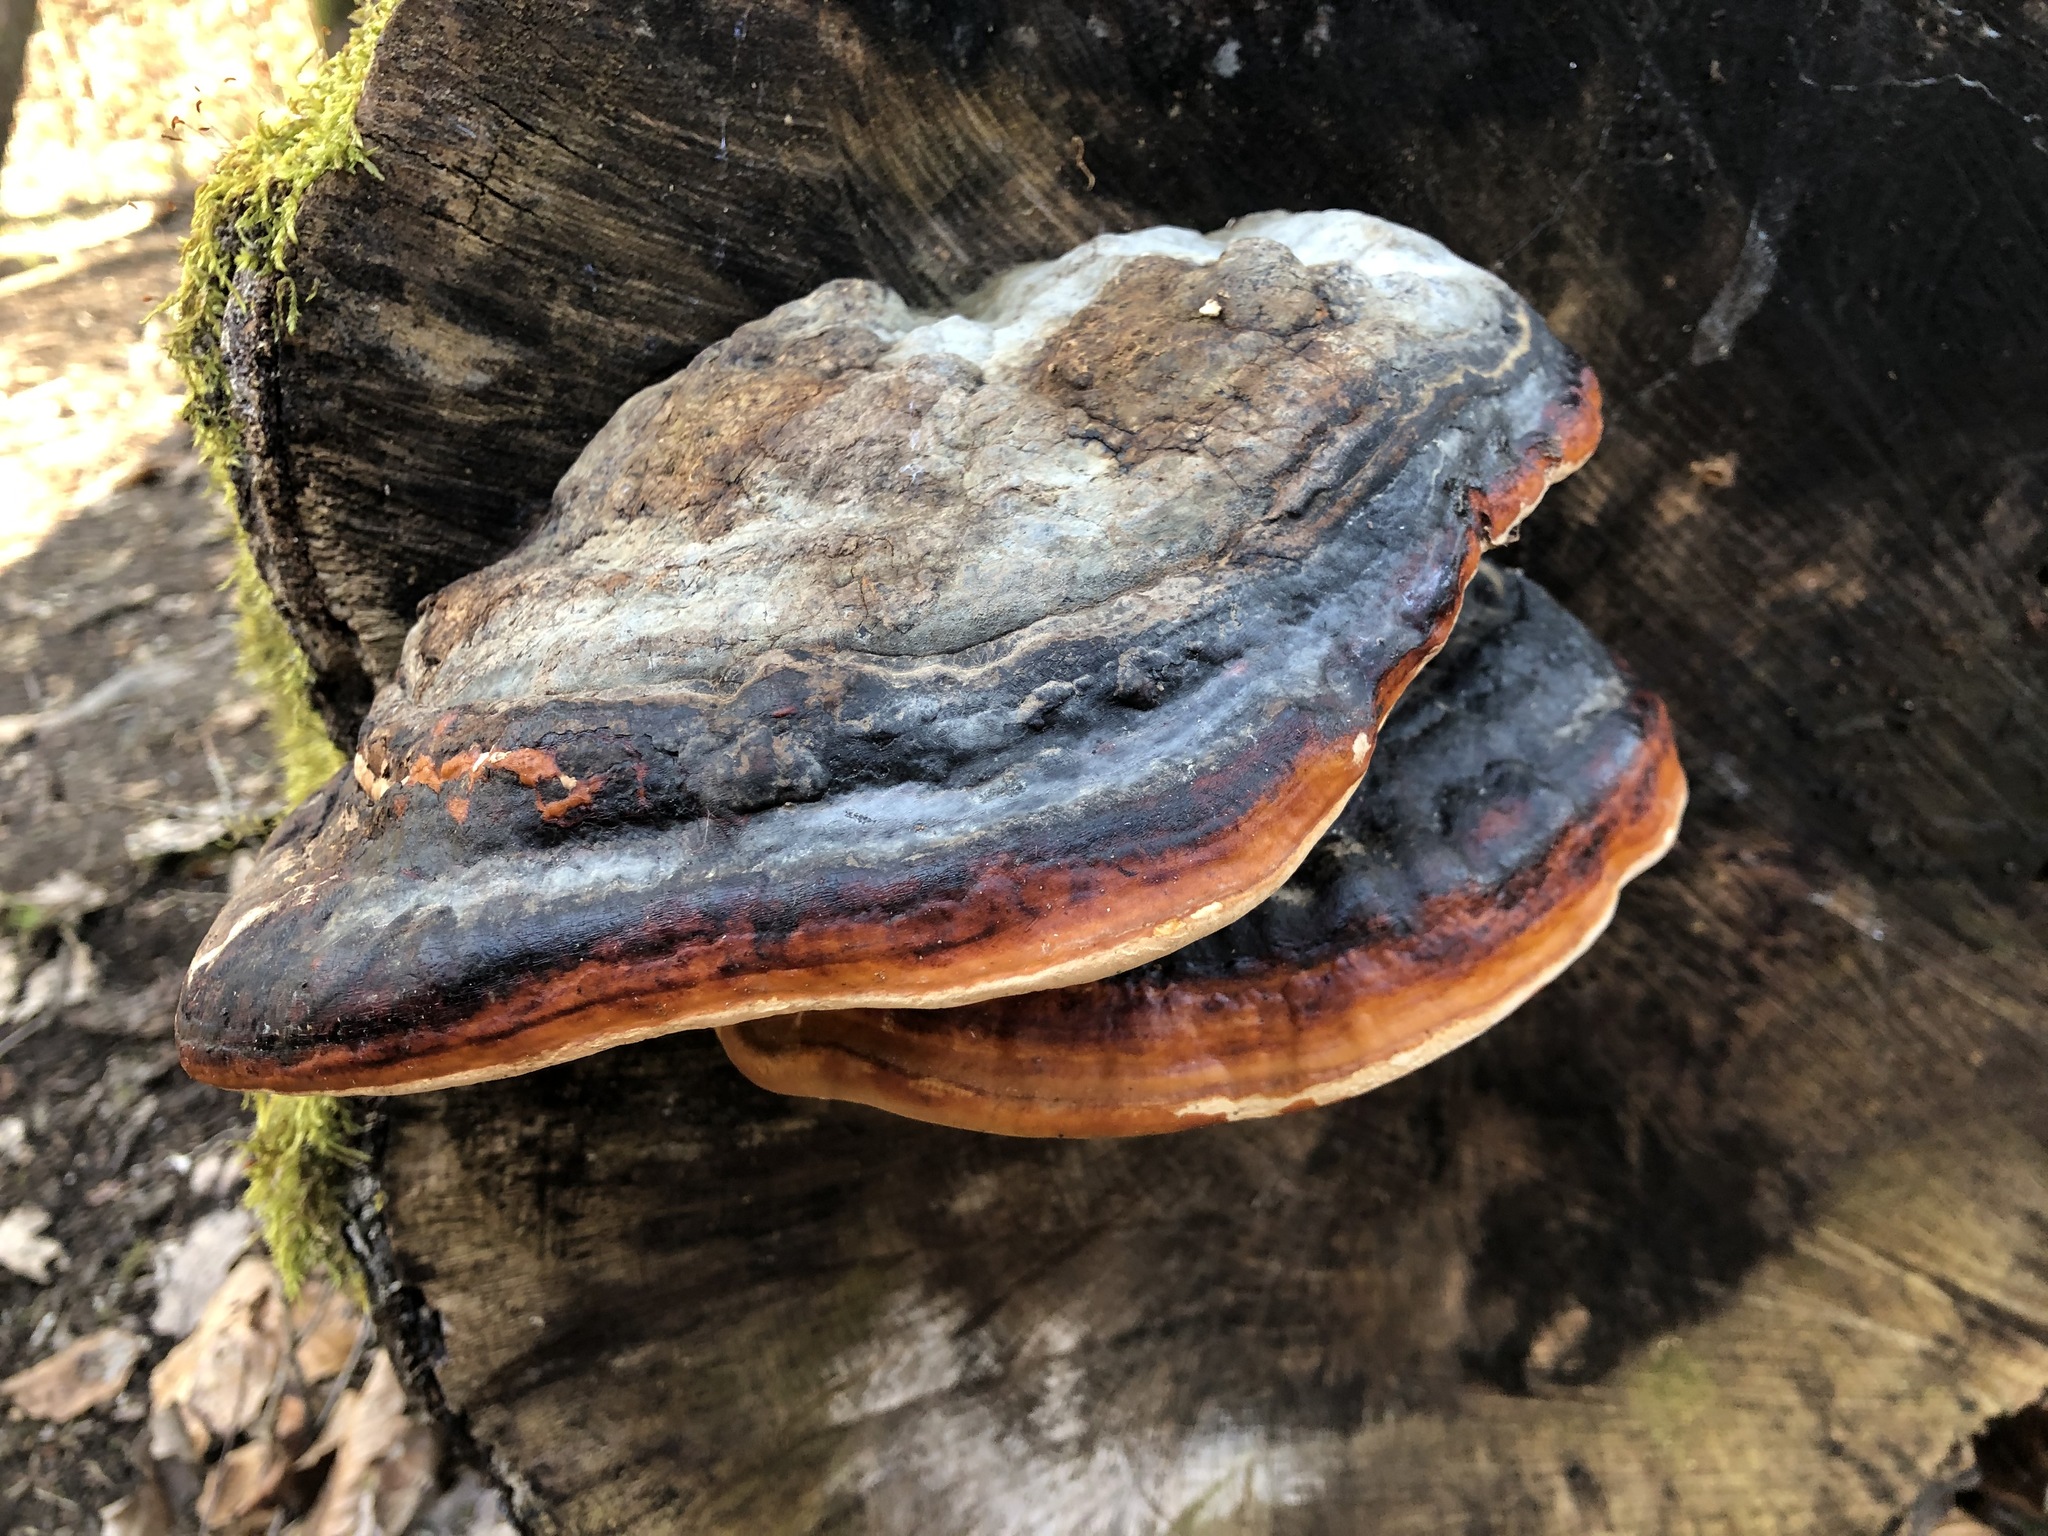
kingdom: Fungi
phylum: Basidiomycota
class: Agaricomycetes
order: Polyporales
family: Fomitopsidaceae
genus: Fomitopsis
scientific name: Fomitopsis pinicola
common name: Red-belted bracket
